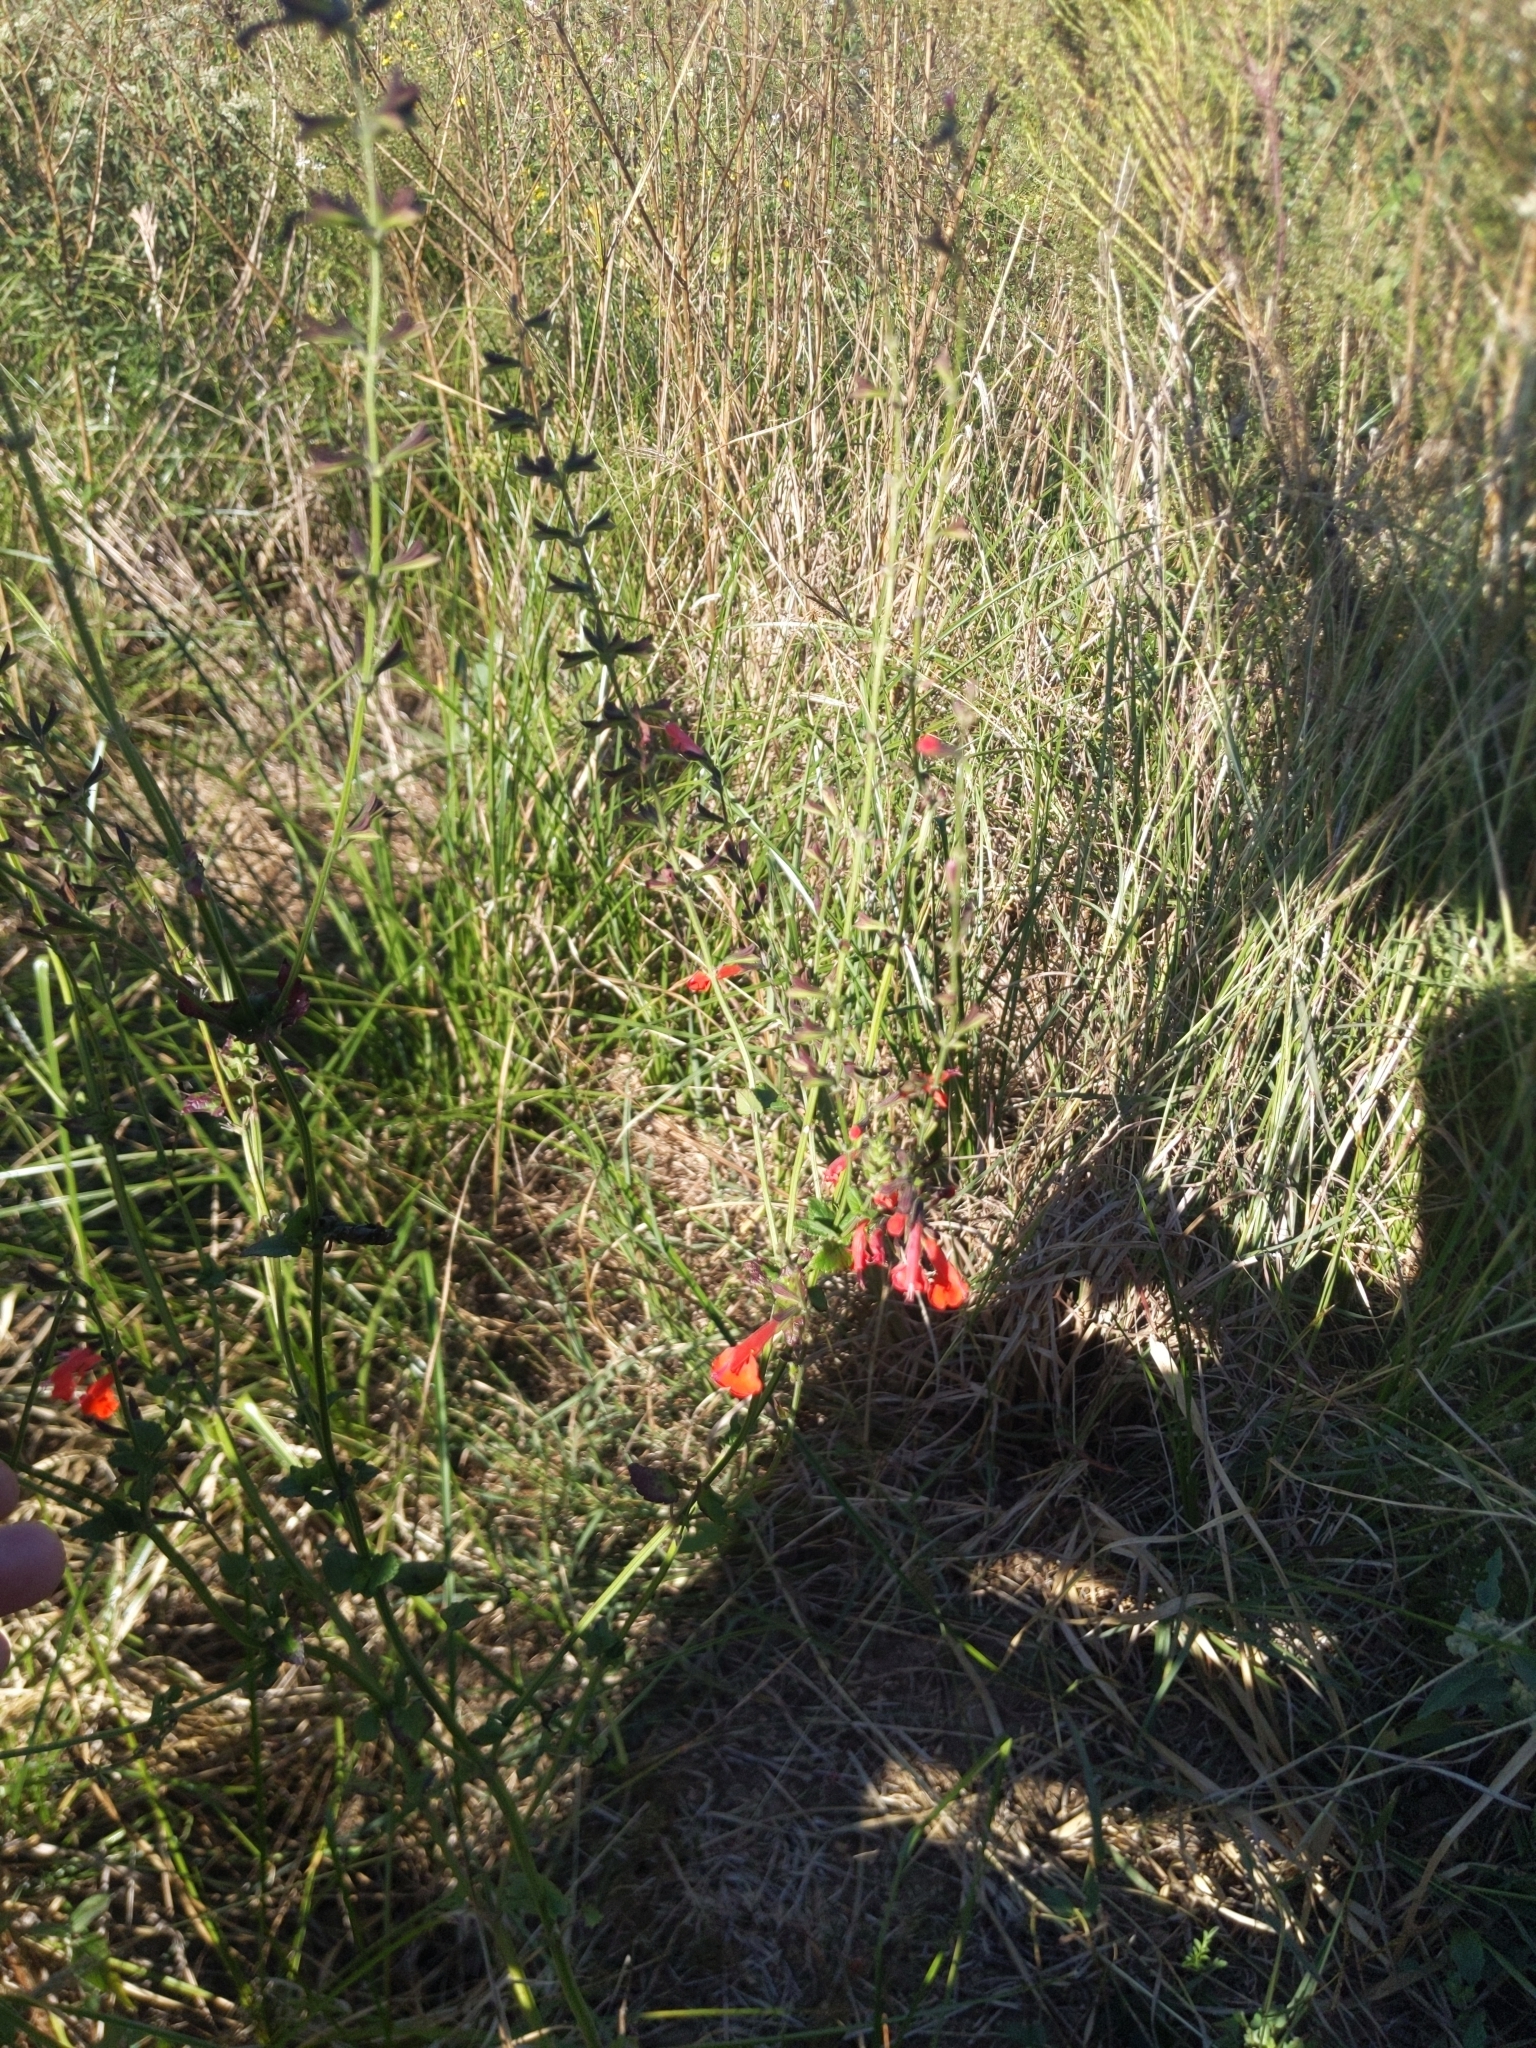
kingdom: Plantae
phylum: Tracheophyta
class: Magnoliopsida
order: Lamiales
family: Lamiaceae
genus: Salvia
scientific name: Salvia coccinea
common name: Blood sage
